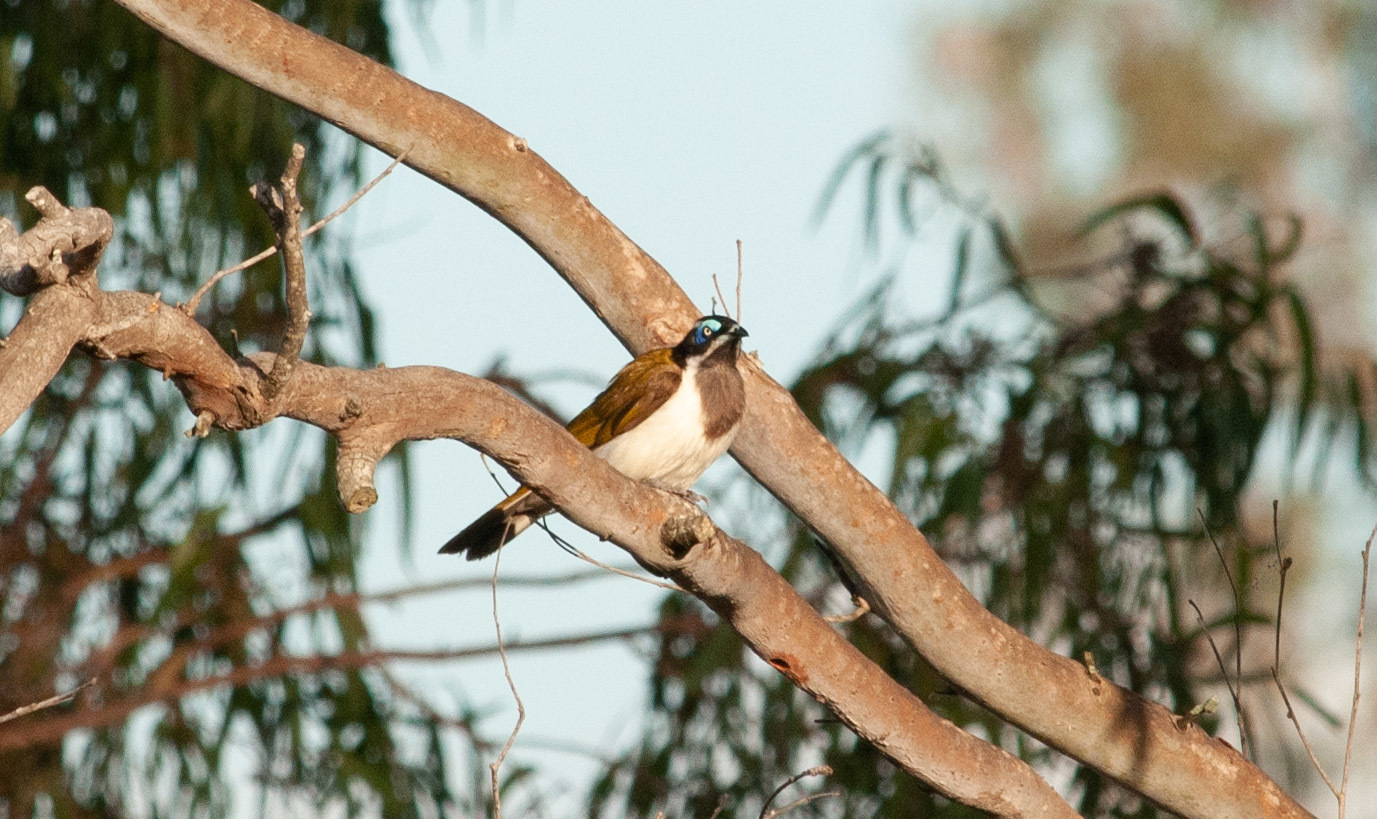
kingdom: Animalia
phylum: Chordata
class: Aves
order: Passeriformes
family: Meliphagidae
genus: Entomyzon
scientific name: Entomyzon cyanotis
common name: Blue-faced honeyeater
